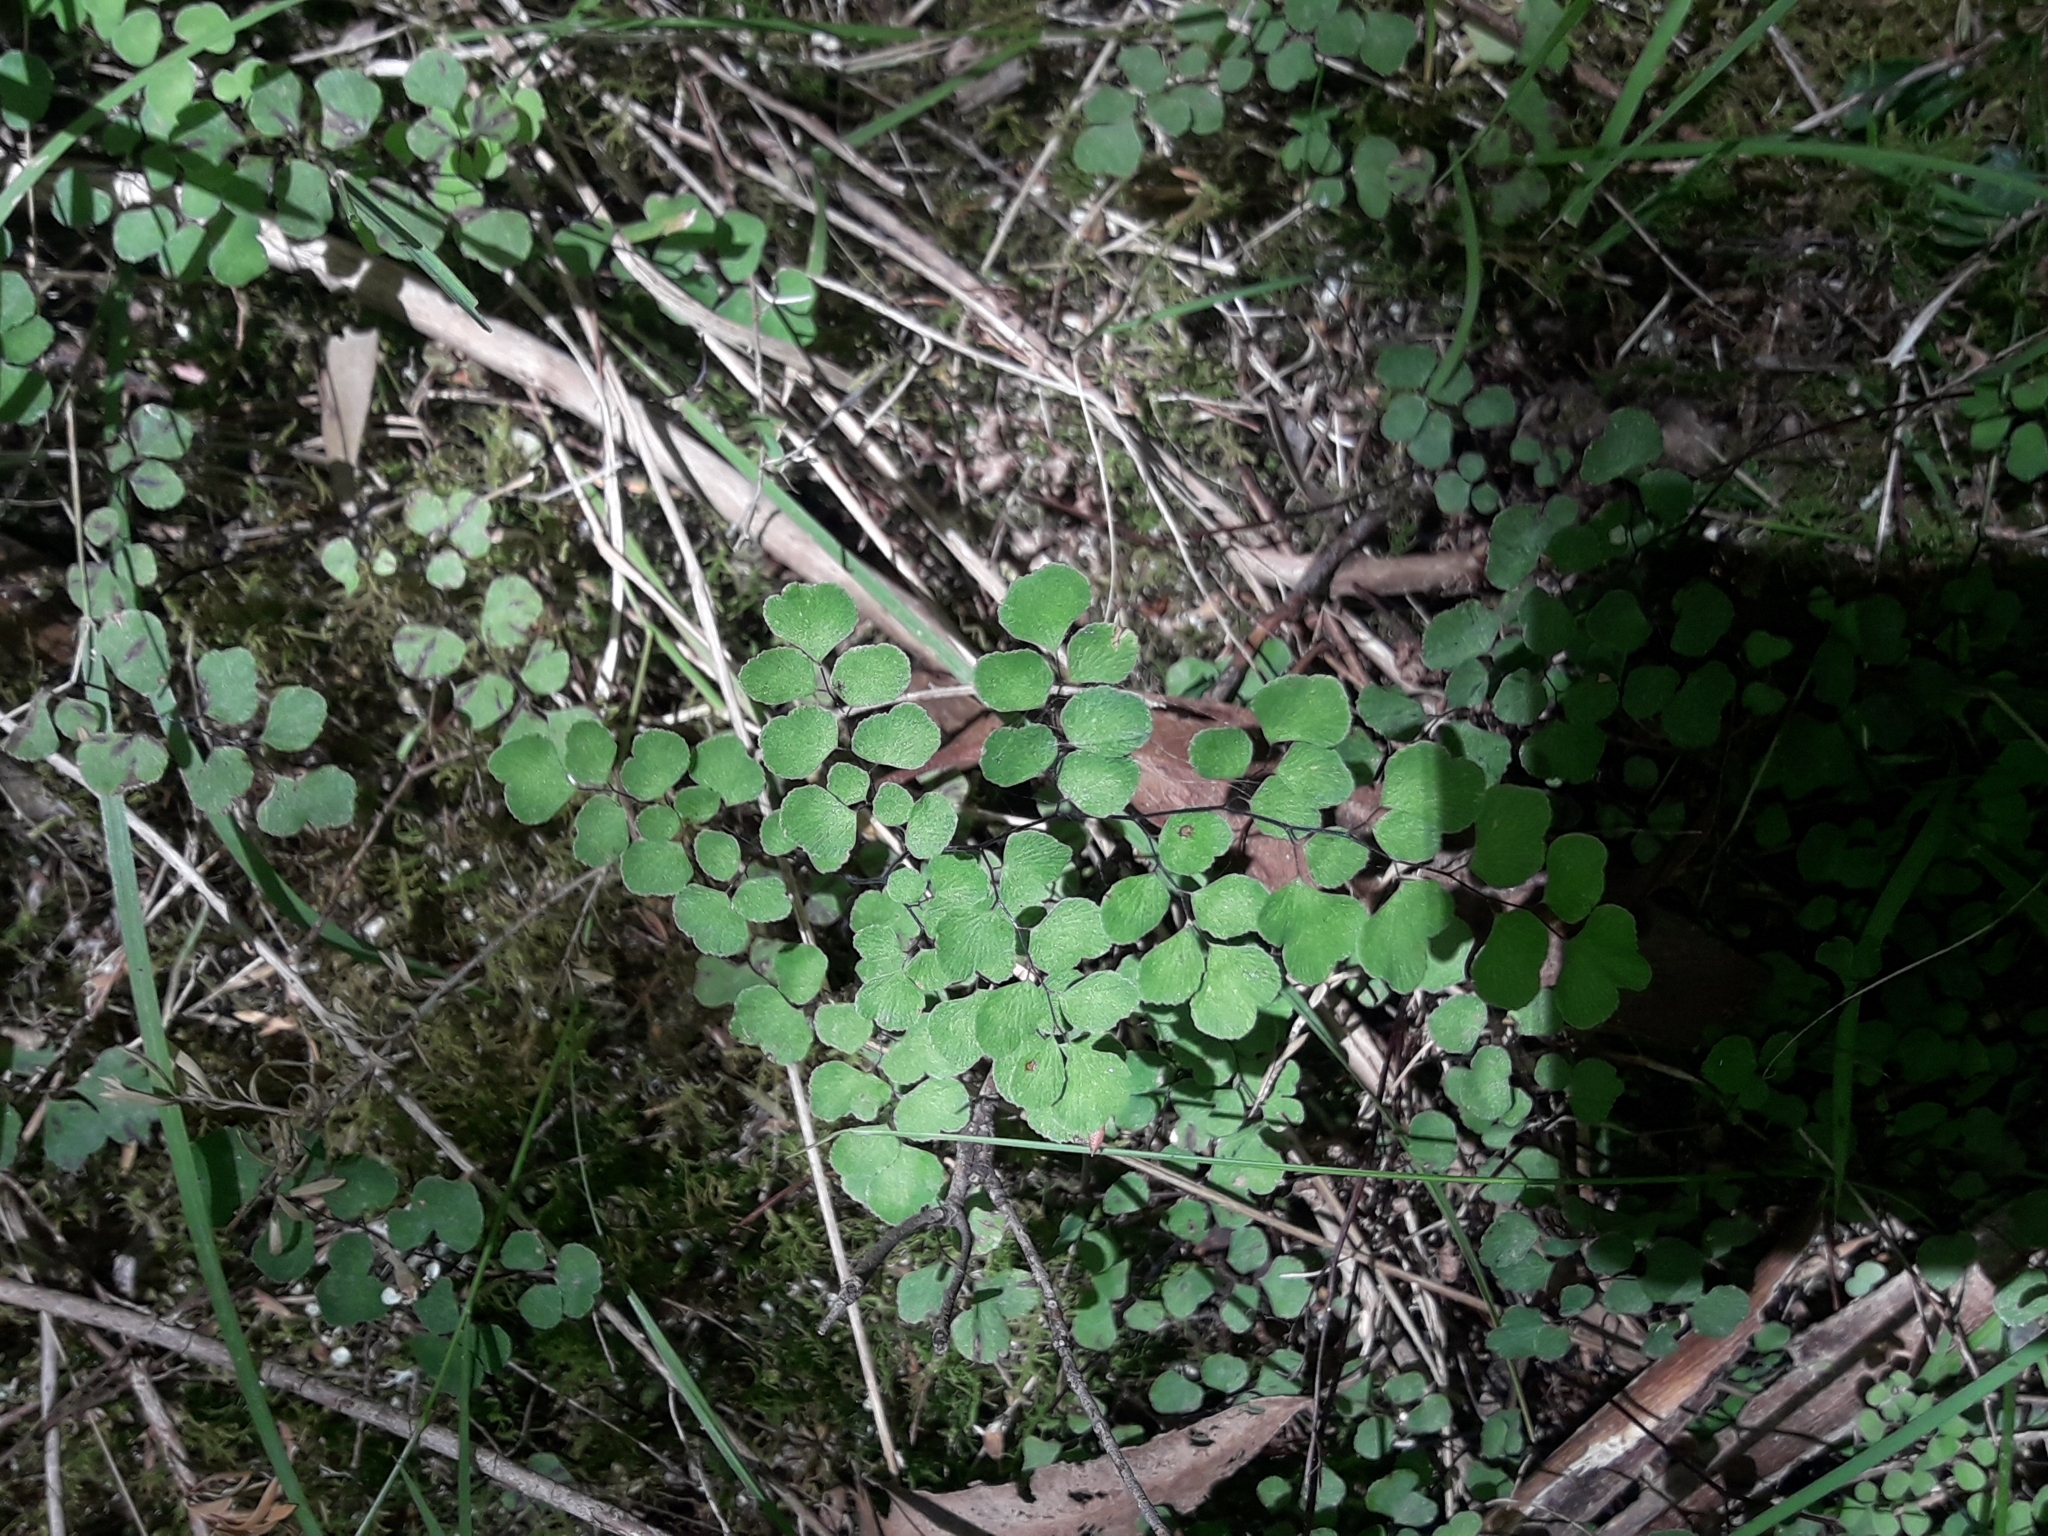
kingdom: Plantae
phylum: Tracheophyta
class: Polypodiopsida
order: Polypodiales
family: Pteridaceae
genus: Adiantum
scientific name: Adiantum aethiopicum
